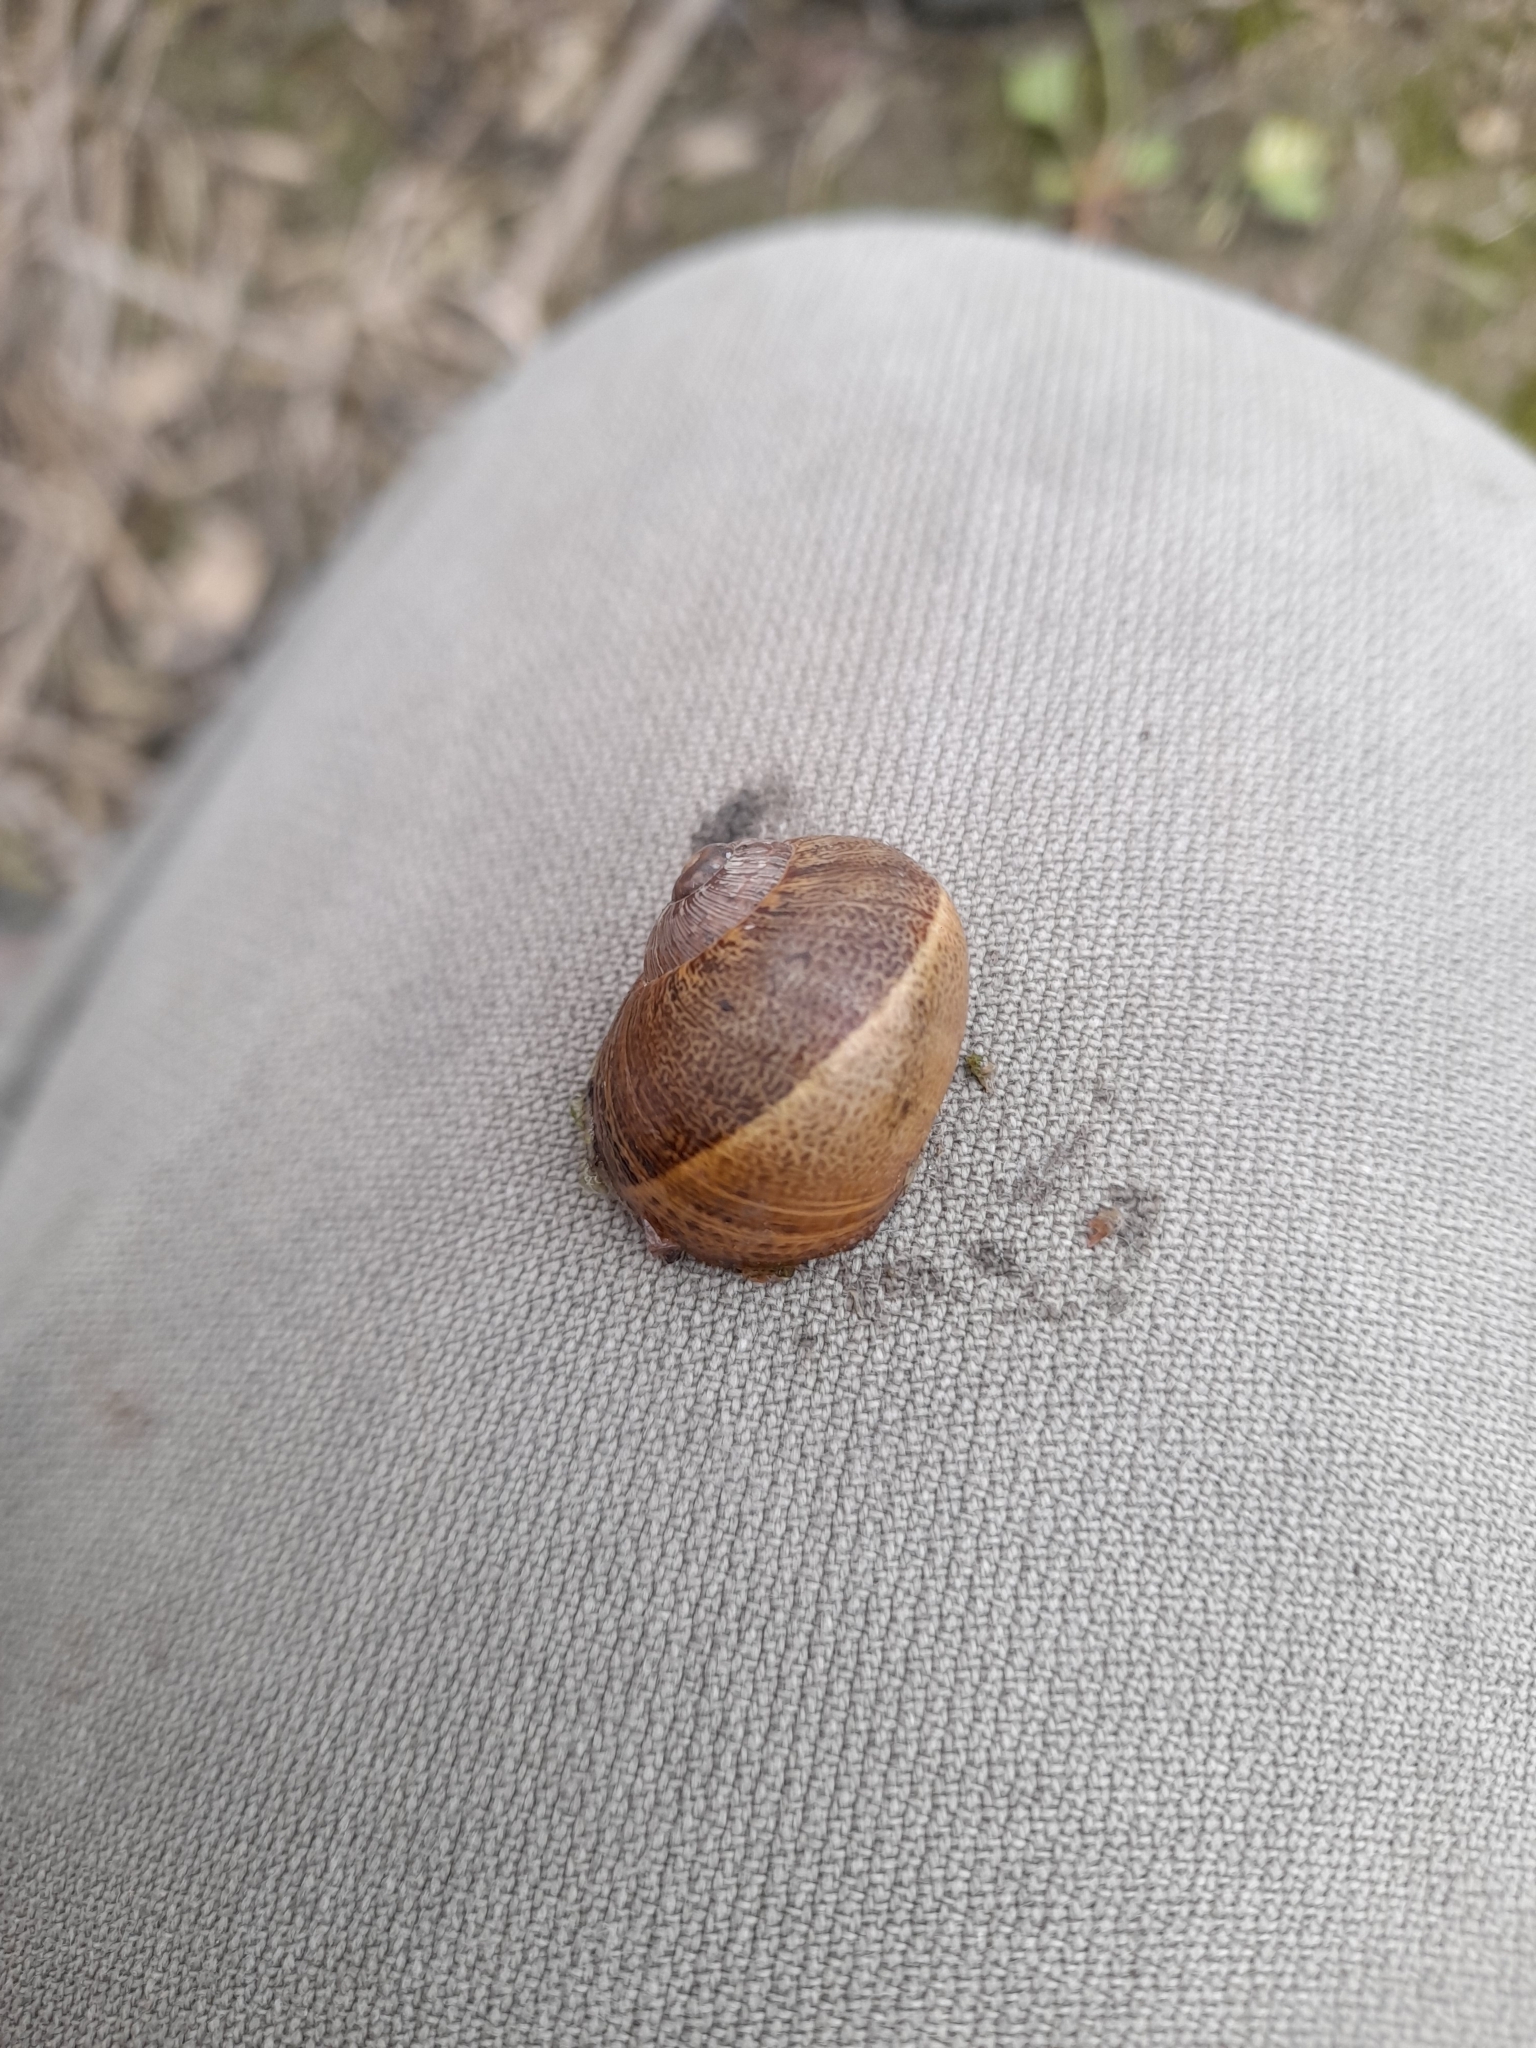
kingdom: Animalia
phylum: Mollusca
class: Gastropoda
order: Stylommatophora
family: Helicidae
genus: Cornu
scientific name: Cornu aspersum
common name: Brown garden snail
